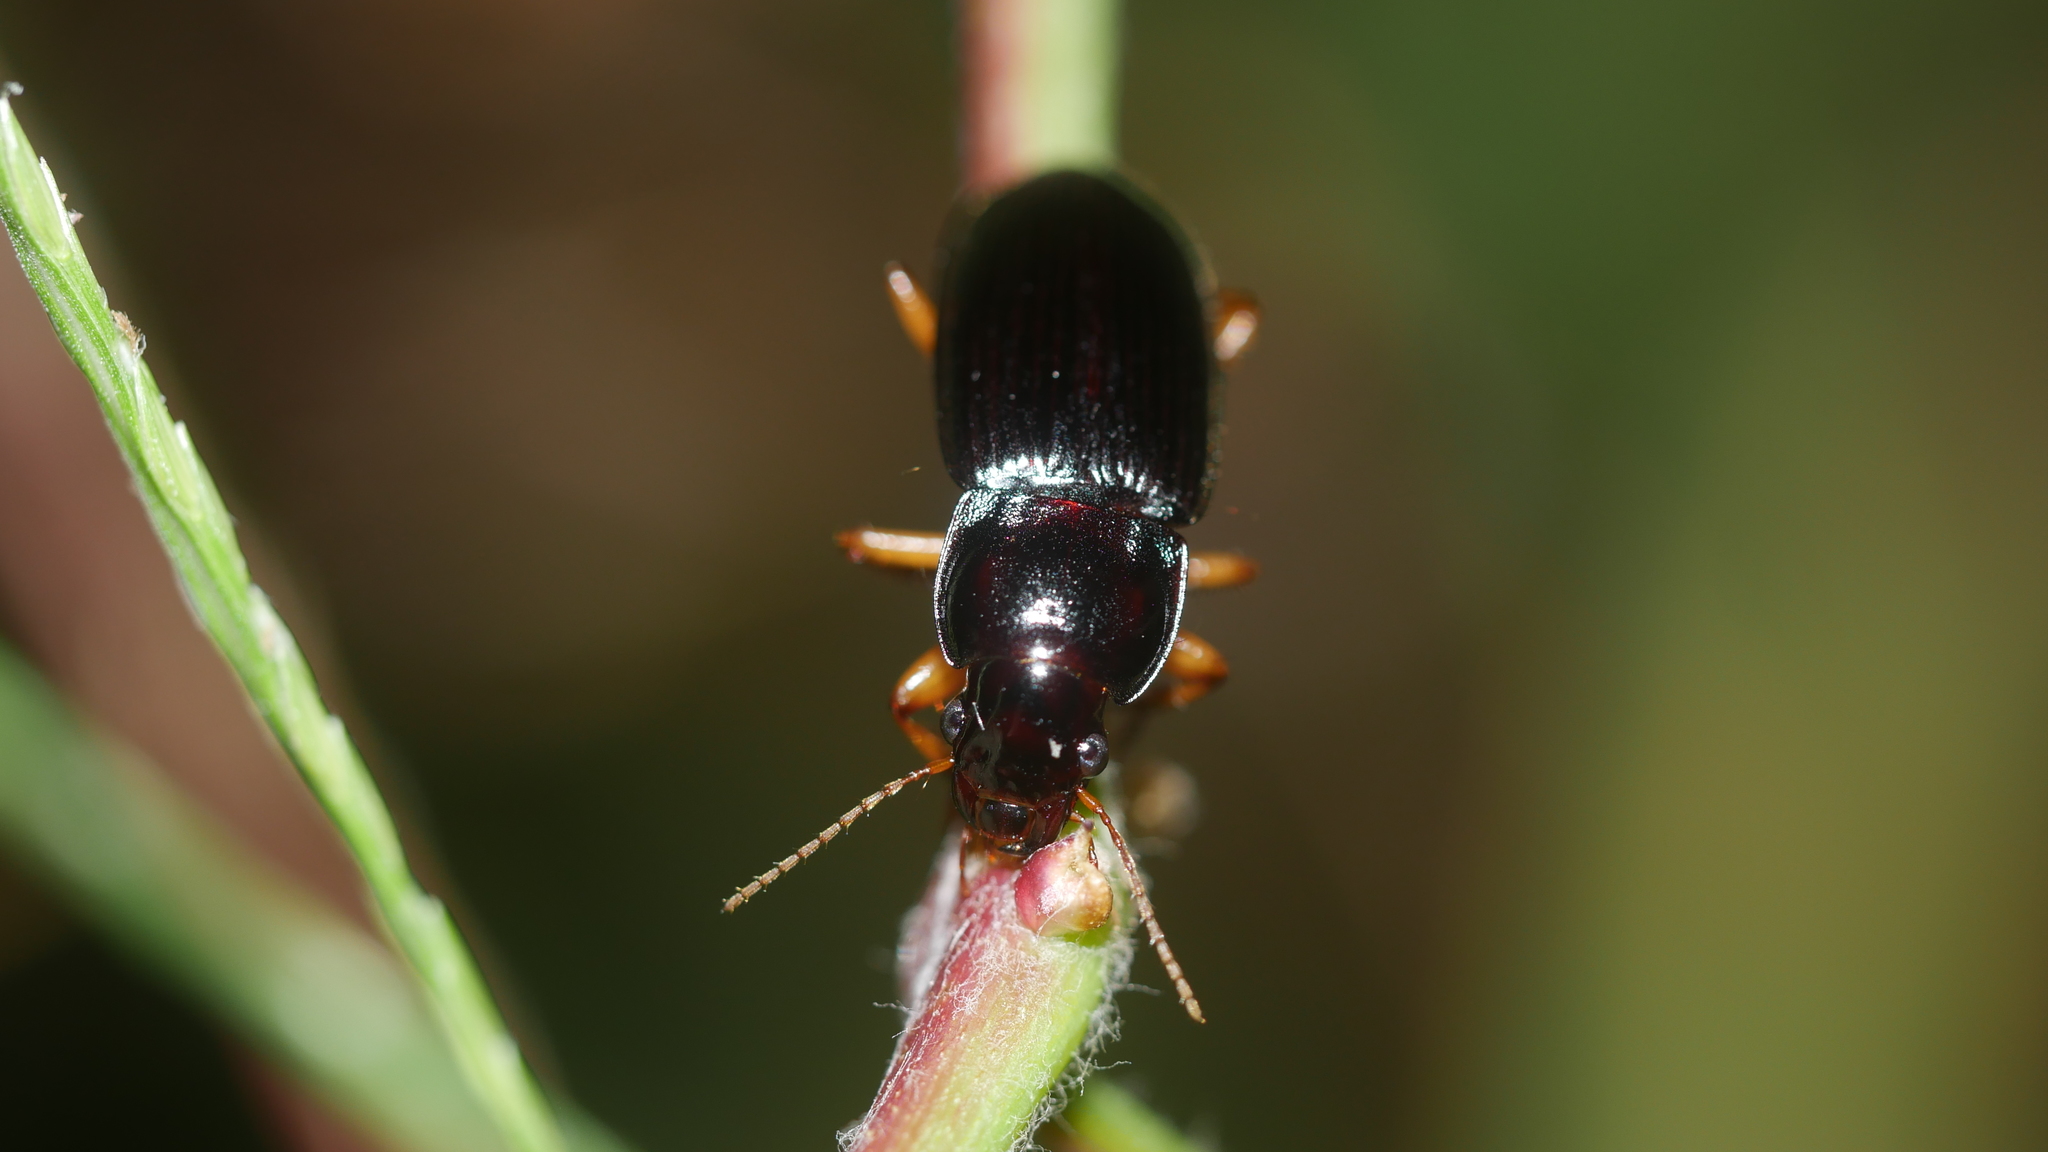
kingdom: Animalia
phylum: Arthropoda
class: Insecta
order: Coleoptera
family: Carabidae
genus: Harpalus
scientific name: Harpalus pensylvanicus
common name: Pennsylvania dingy ground beetle
